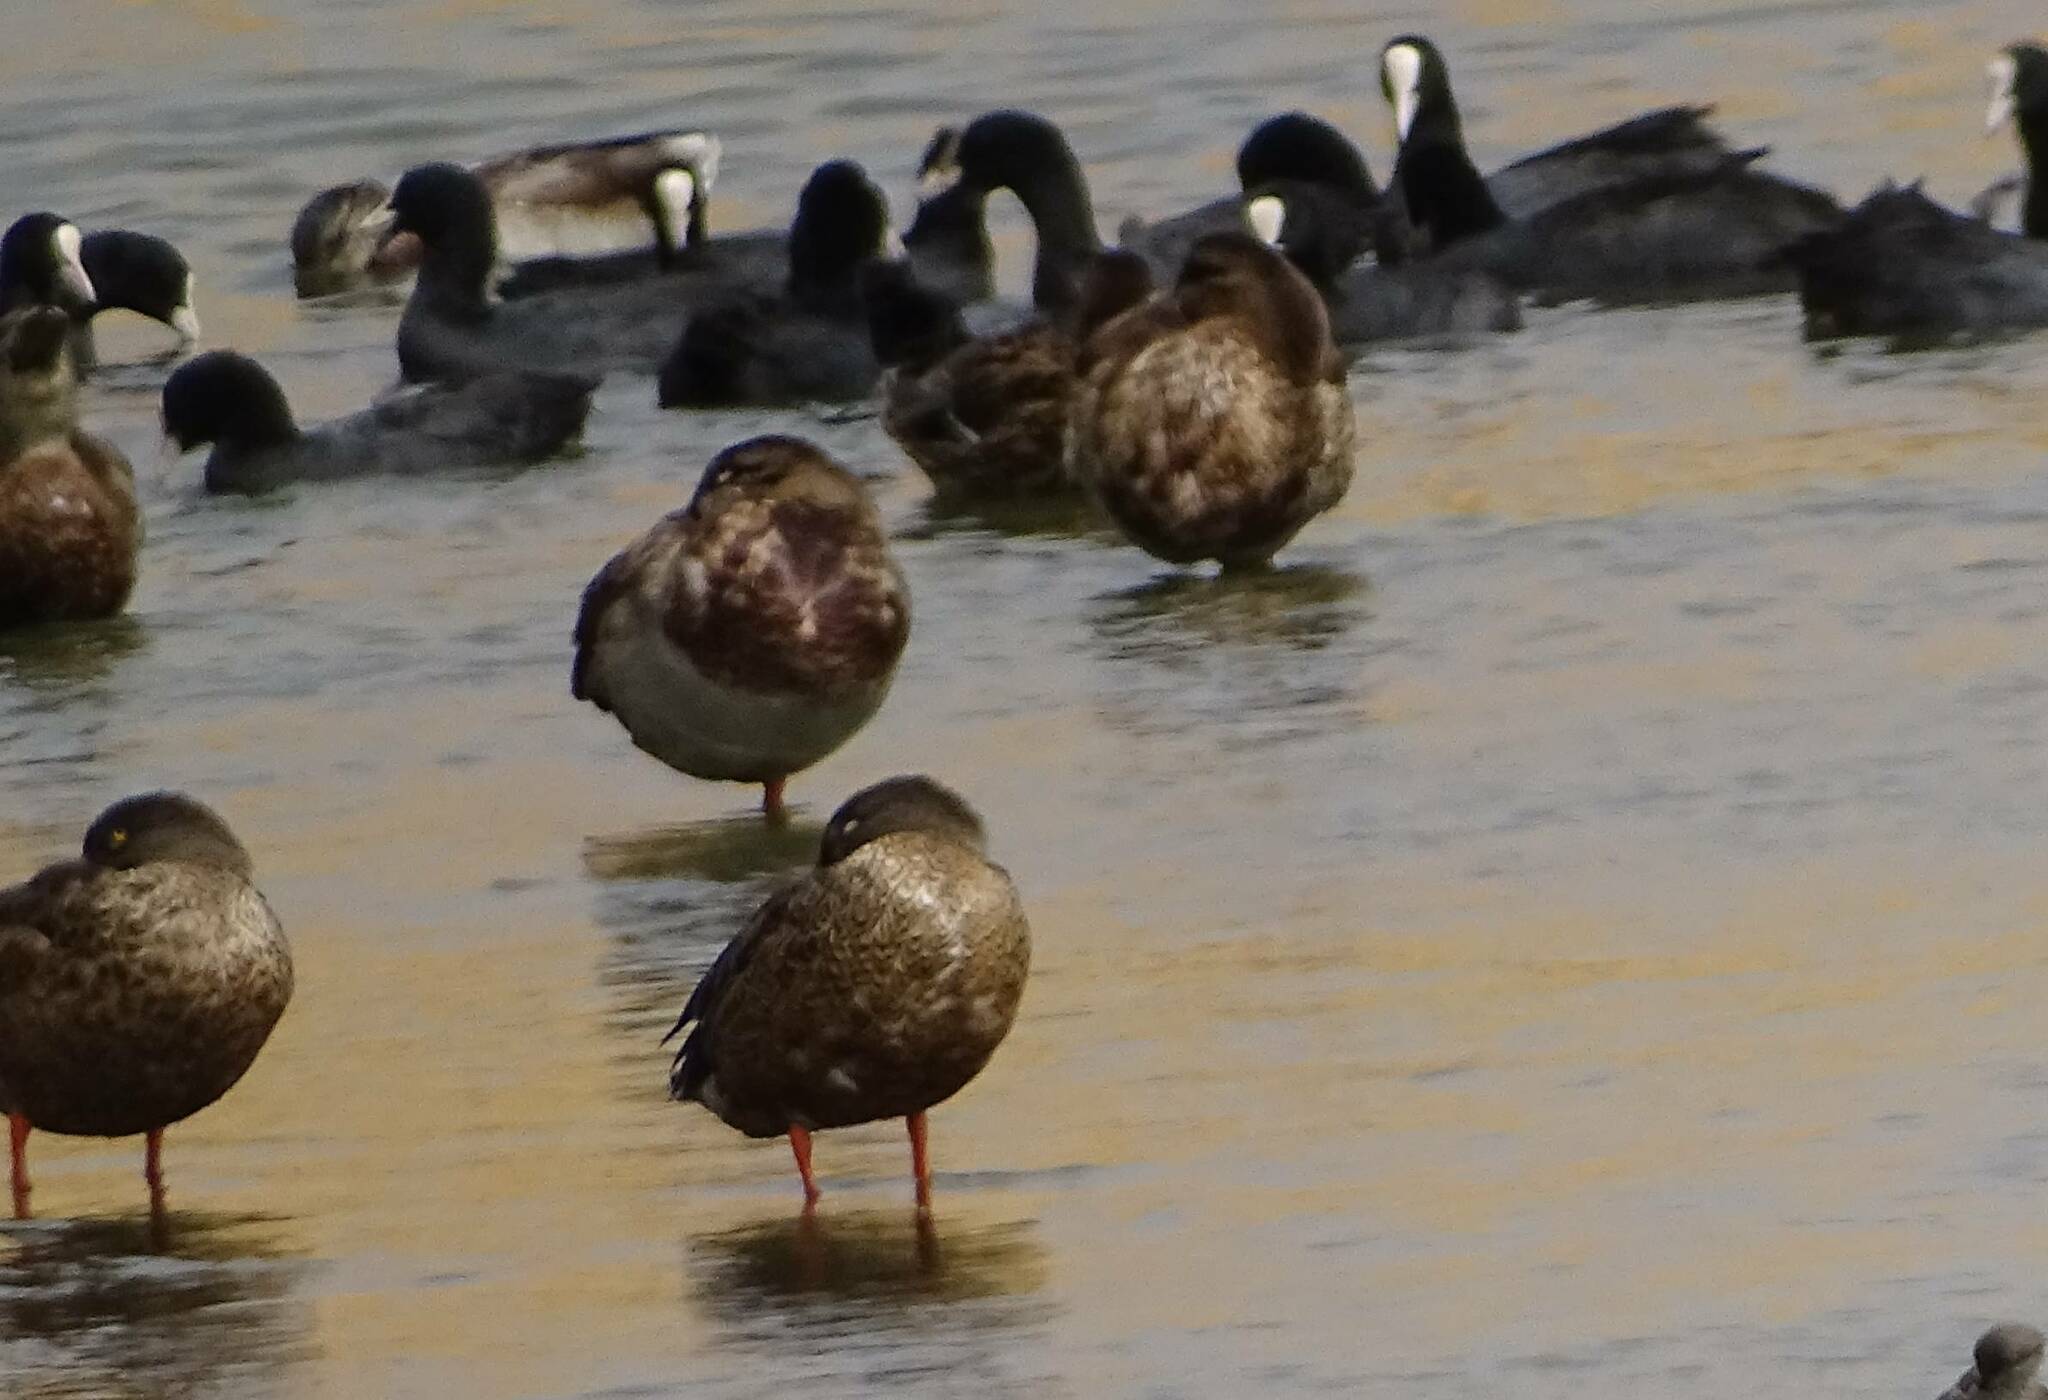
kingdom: Animalia
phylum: Chordata
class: Aves
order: Anseriformes
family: Anatidae
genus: Spatula
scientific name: Spatula clypeata
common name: Northern shoveler
